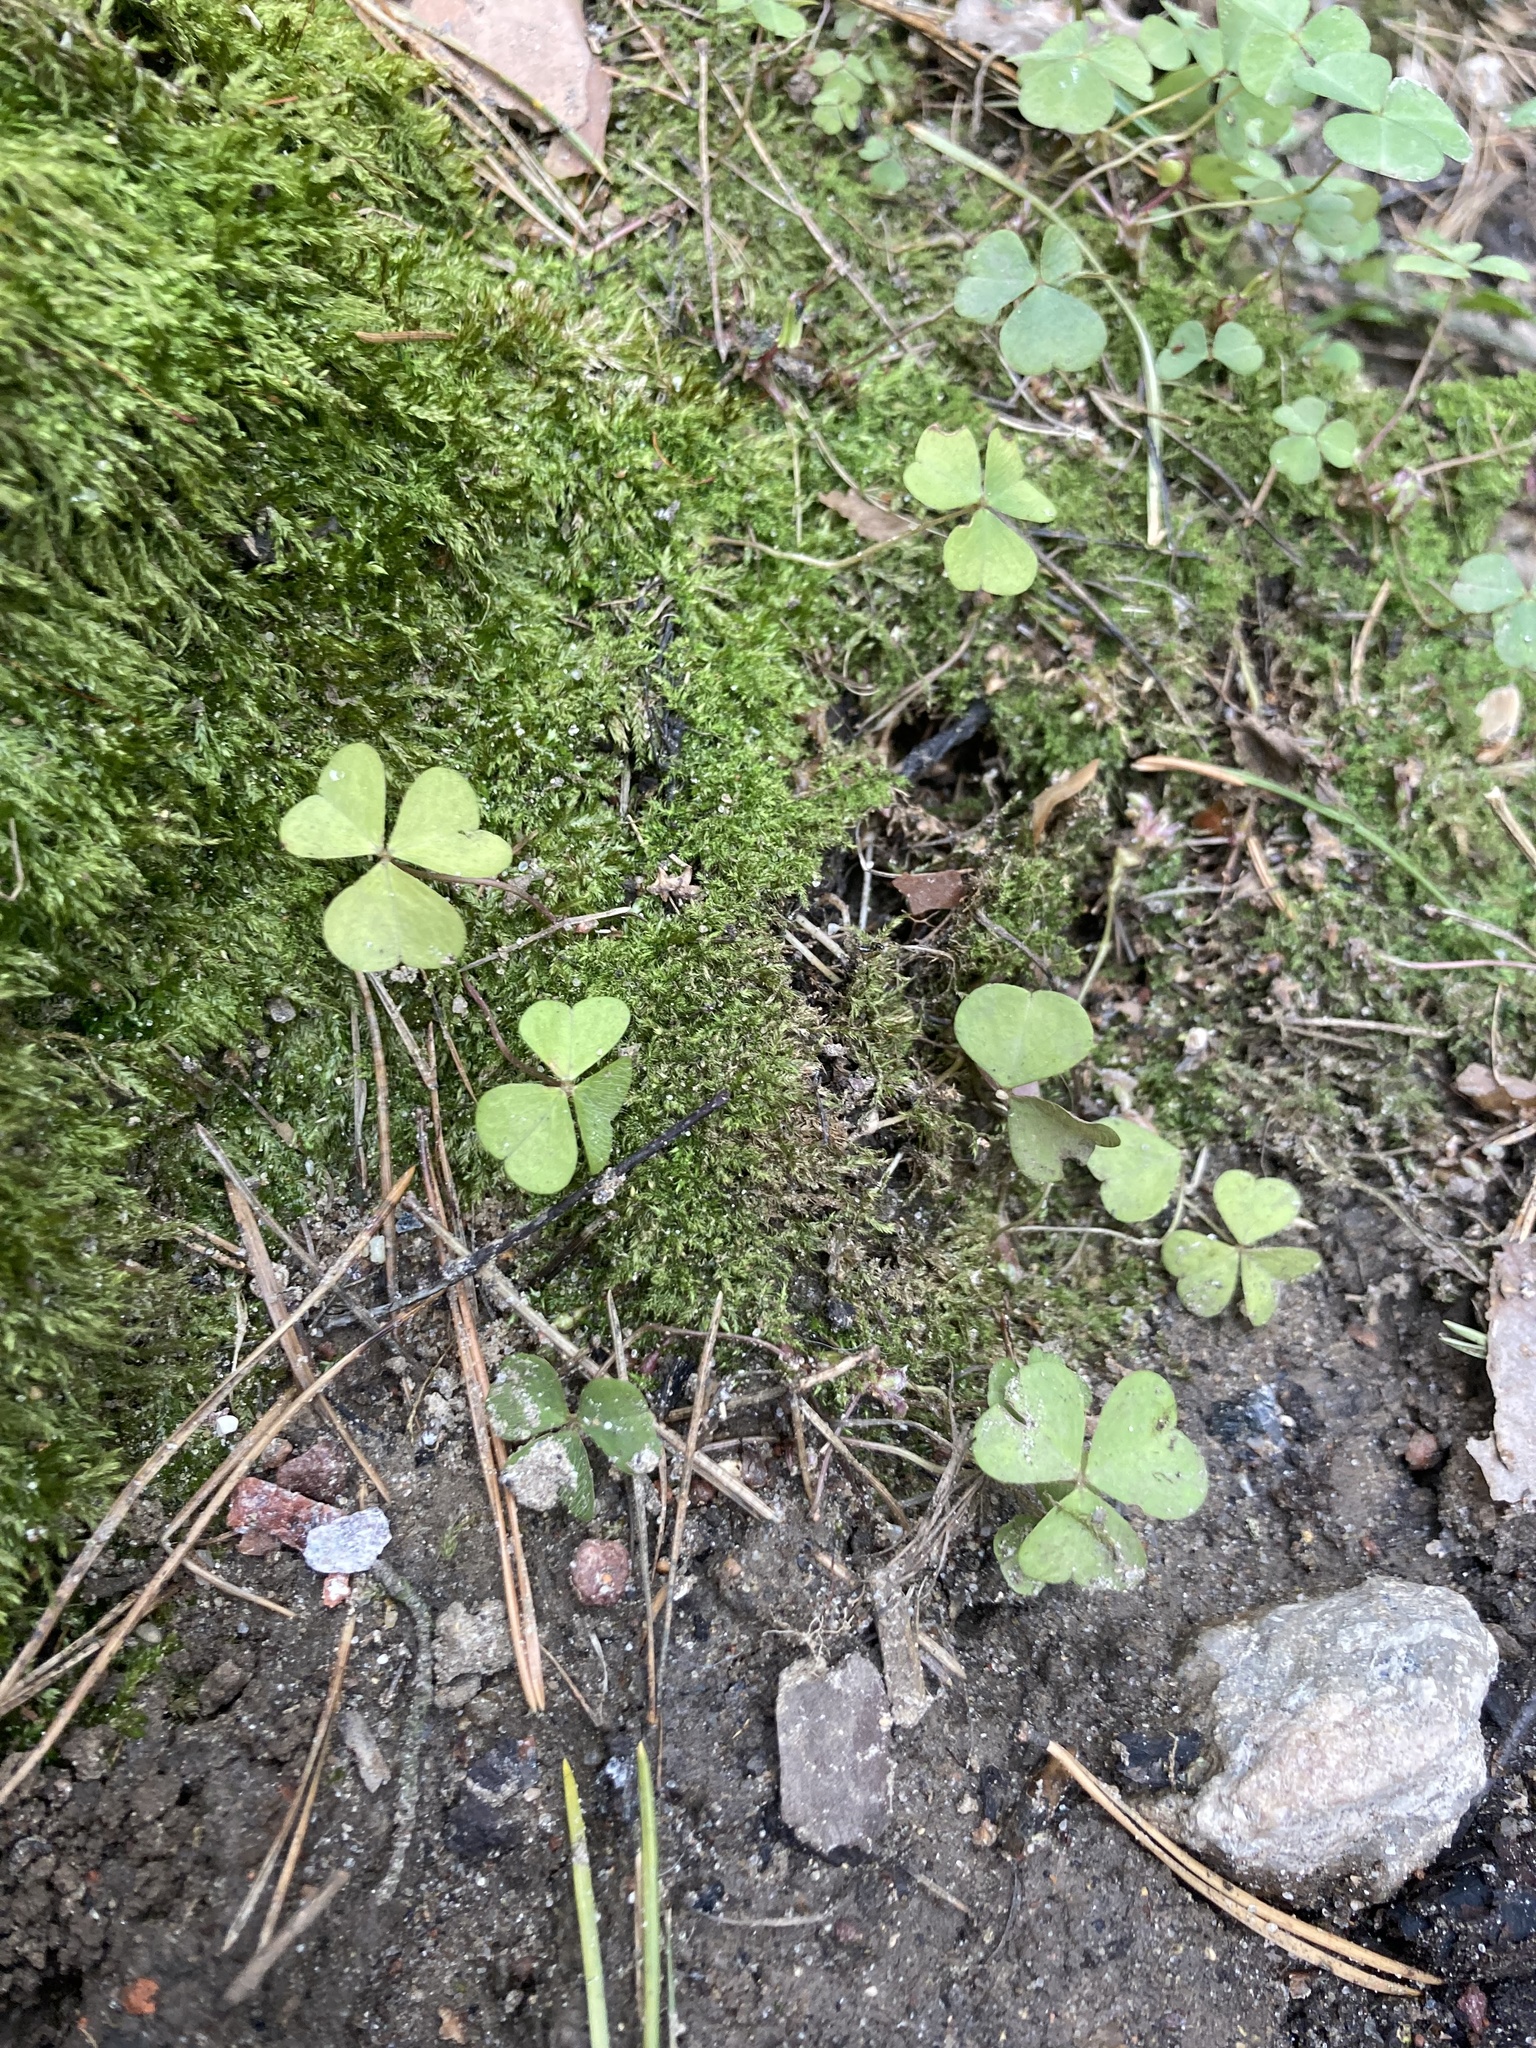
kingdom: Plantae
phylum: Tracheophyta
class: Magnoliopsida
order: Oxalidales
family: Oxalidaceae
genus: Oxalis
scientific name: Oxalis acetosella
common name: Wood-sorrel
